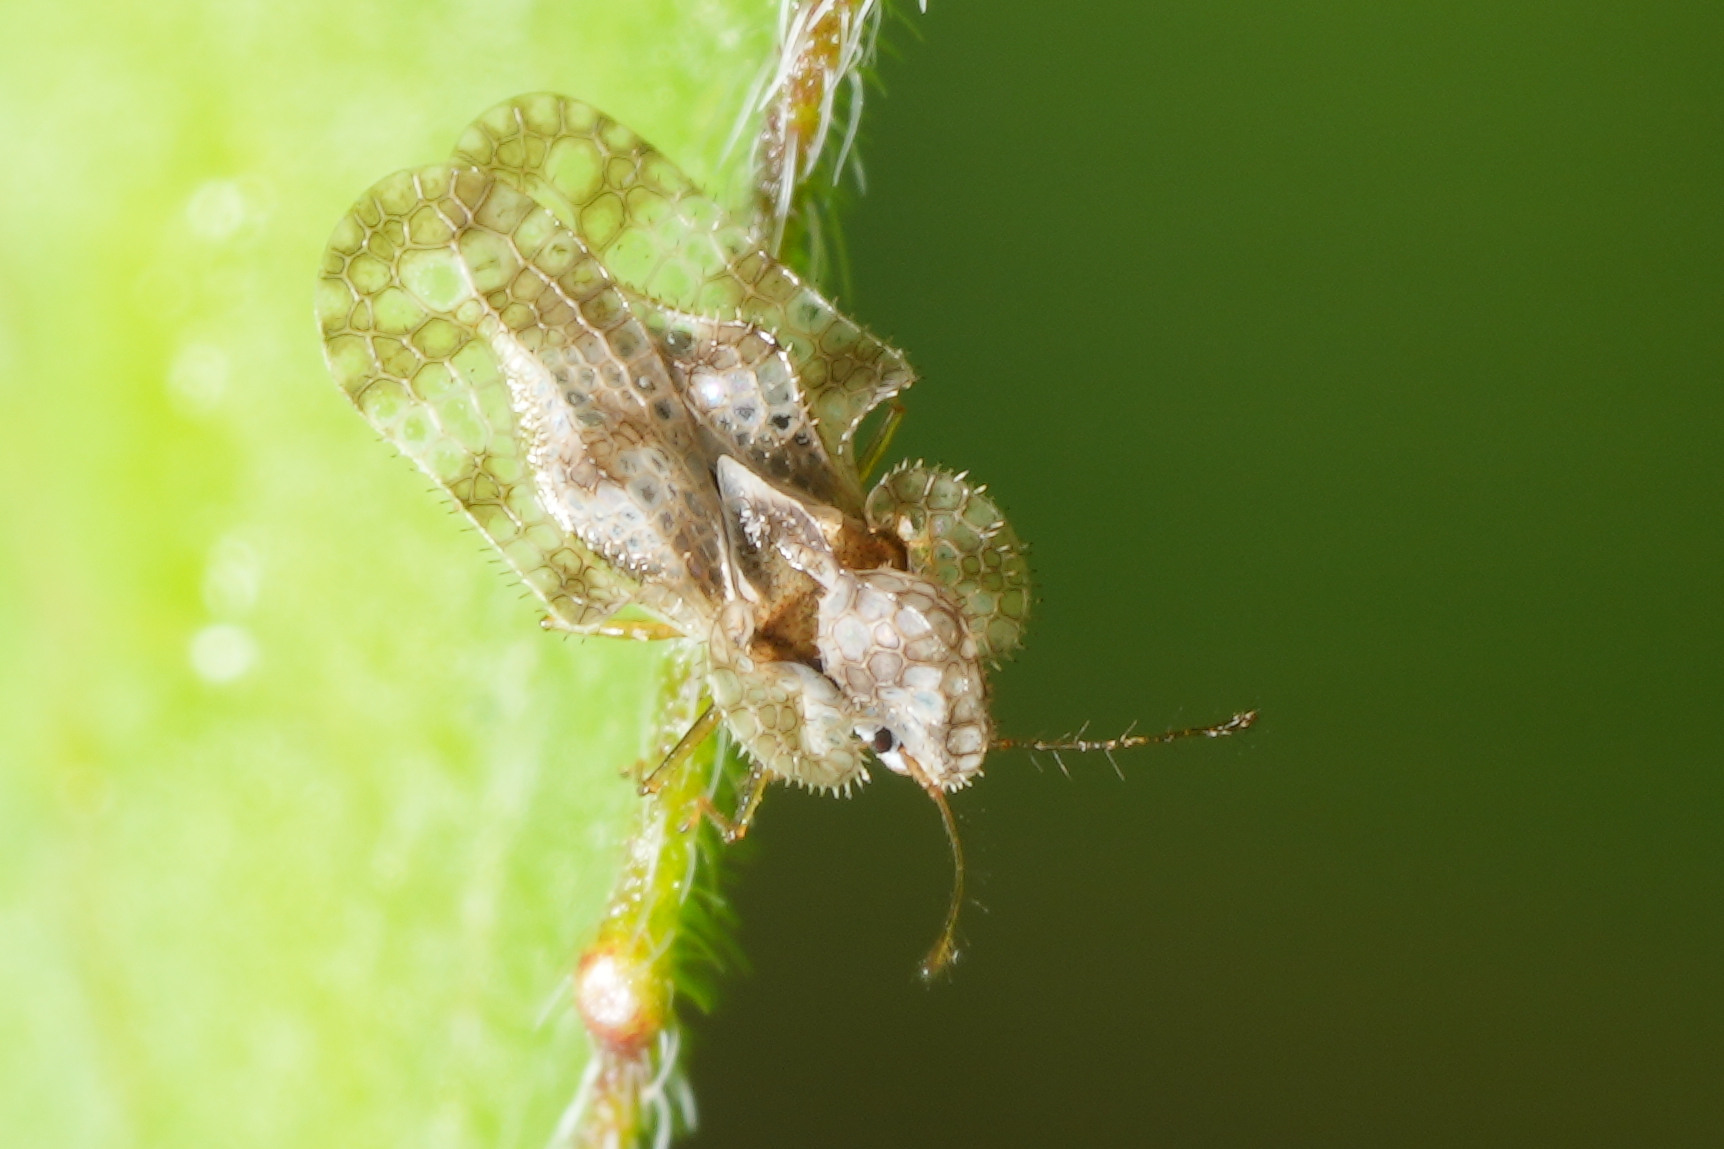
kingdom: Animalia
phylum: Arthropoda
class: Insecta
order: Hemiptera
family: Tingidae
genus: Corythucha
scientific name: Corythucha marmorata
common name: Chrysanthemum lace bug
